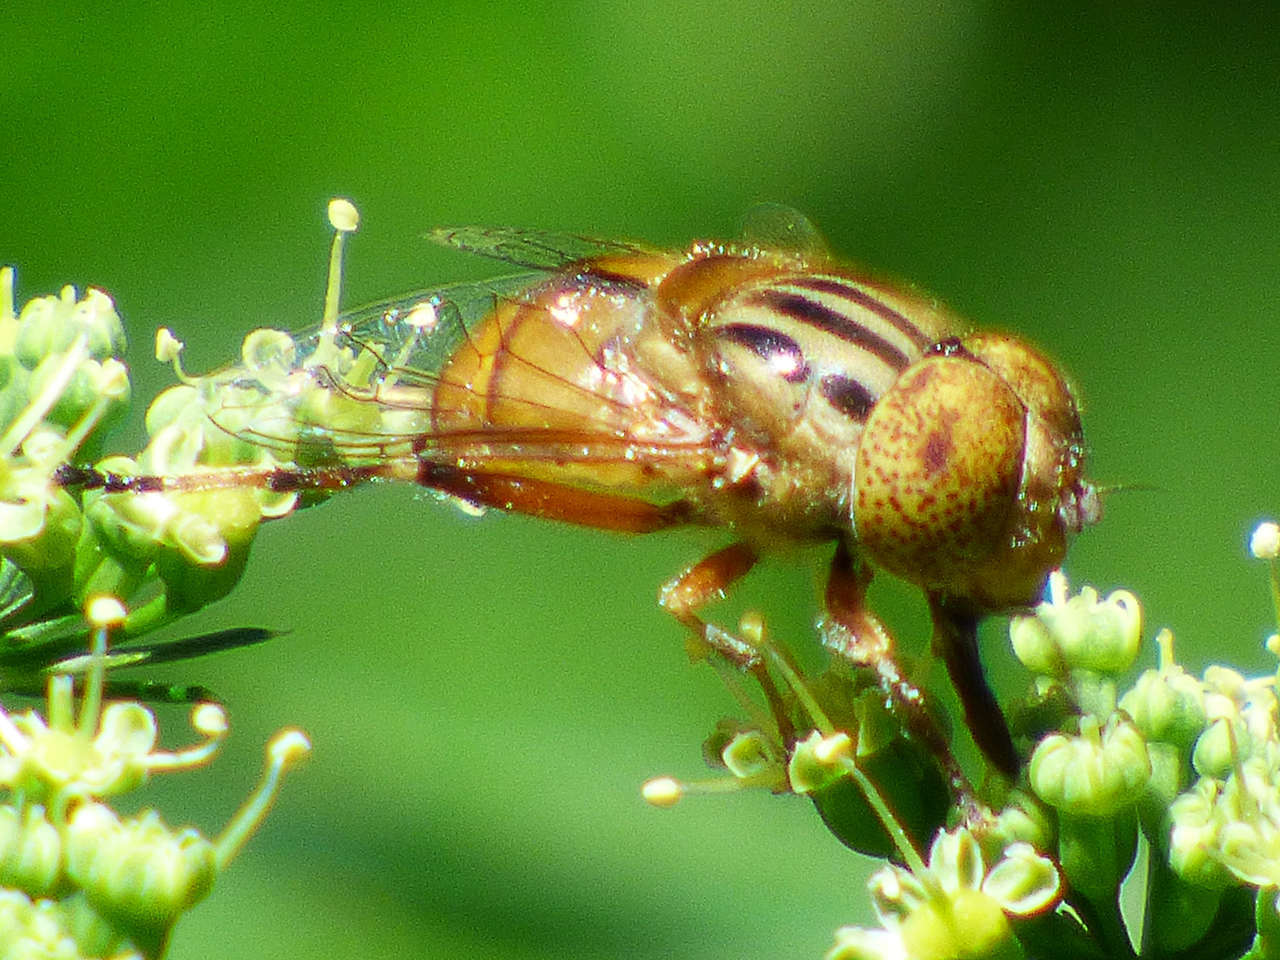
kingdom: Animalia
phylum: Arthropoda
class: Insecta
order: Diptera
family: Syrphidae
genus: Eristalinus
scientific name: Eristalinus punctulatus
